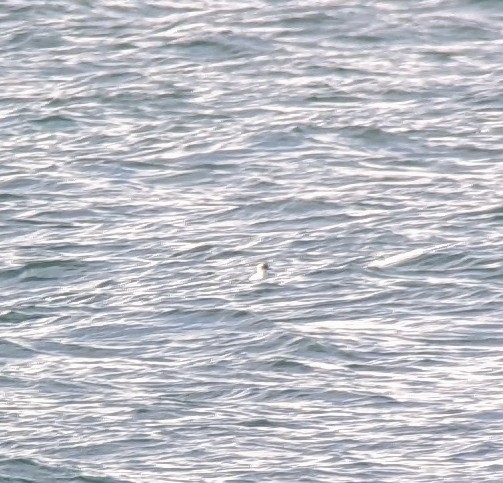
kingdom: Animalia
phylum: Chordata
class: Aves
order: Charadriiformes
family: Alcidae
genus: Cepphus
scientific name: Cepphus columba
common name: Pigeon guillemot
